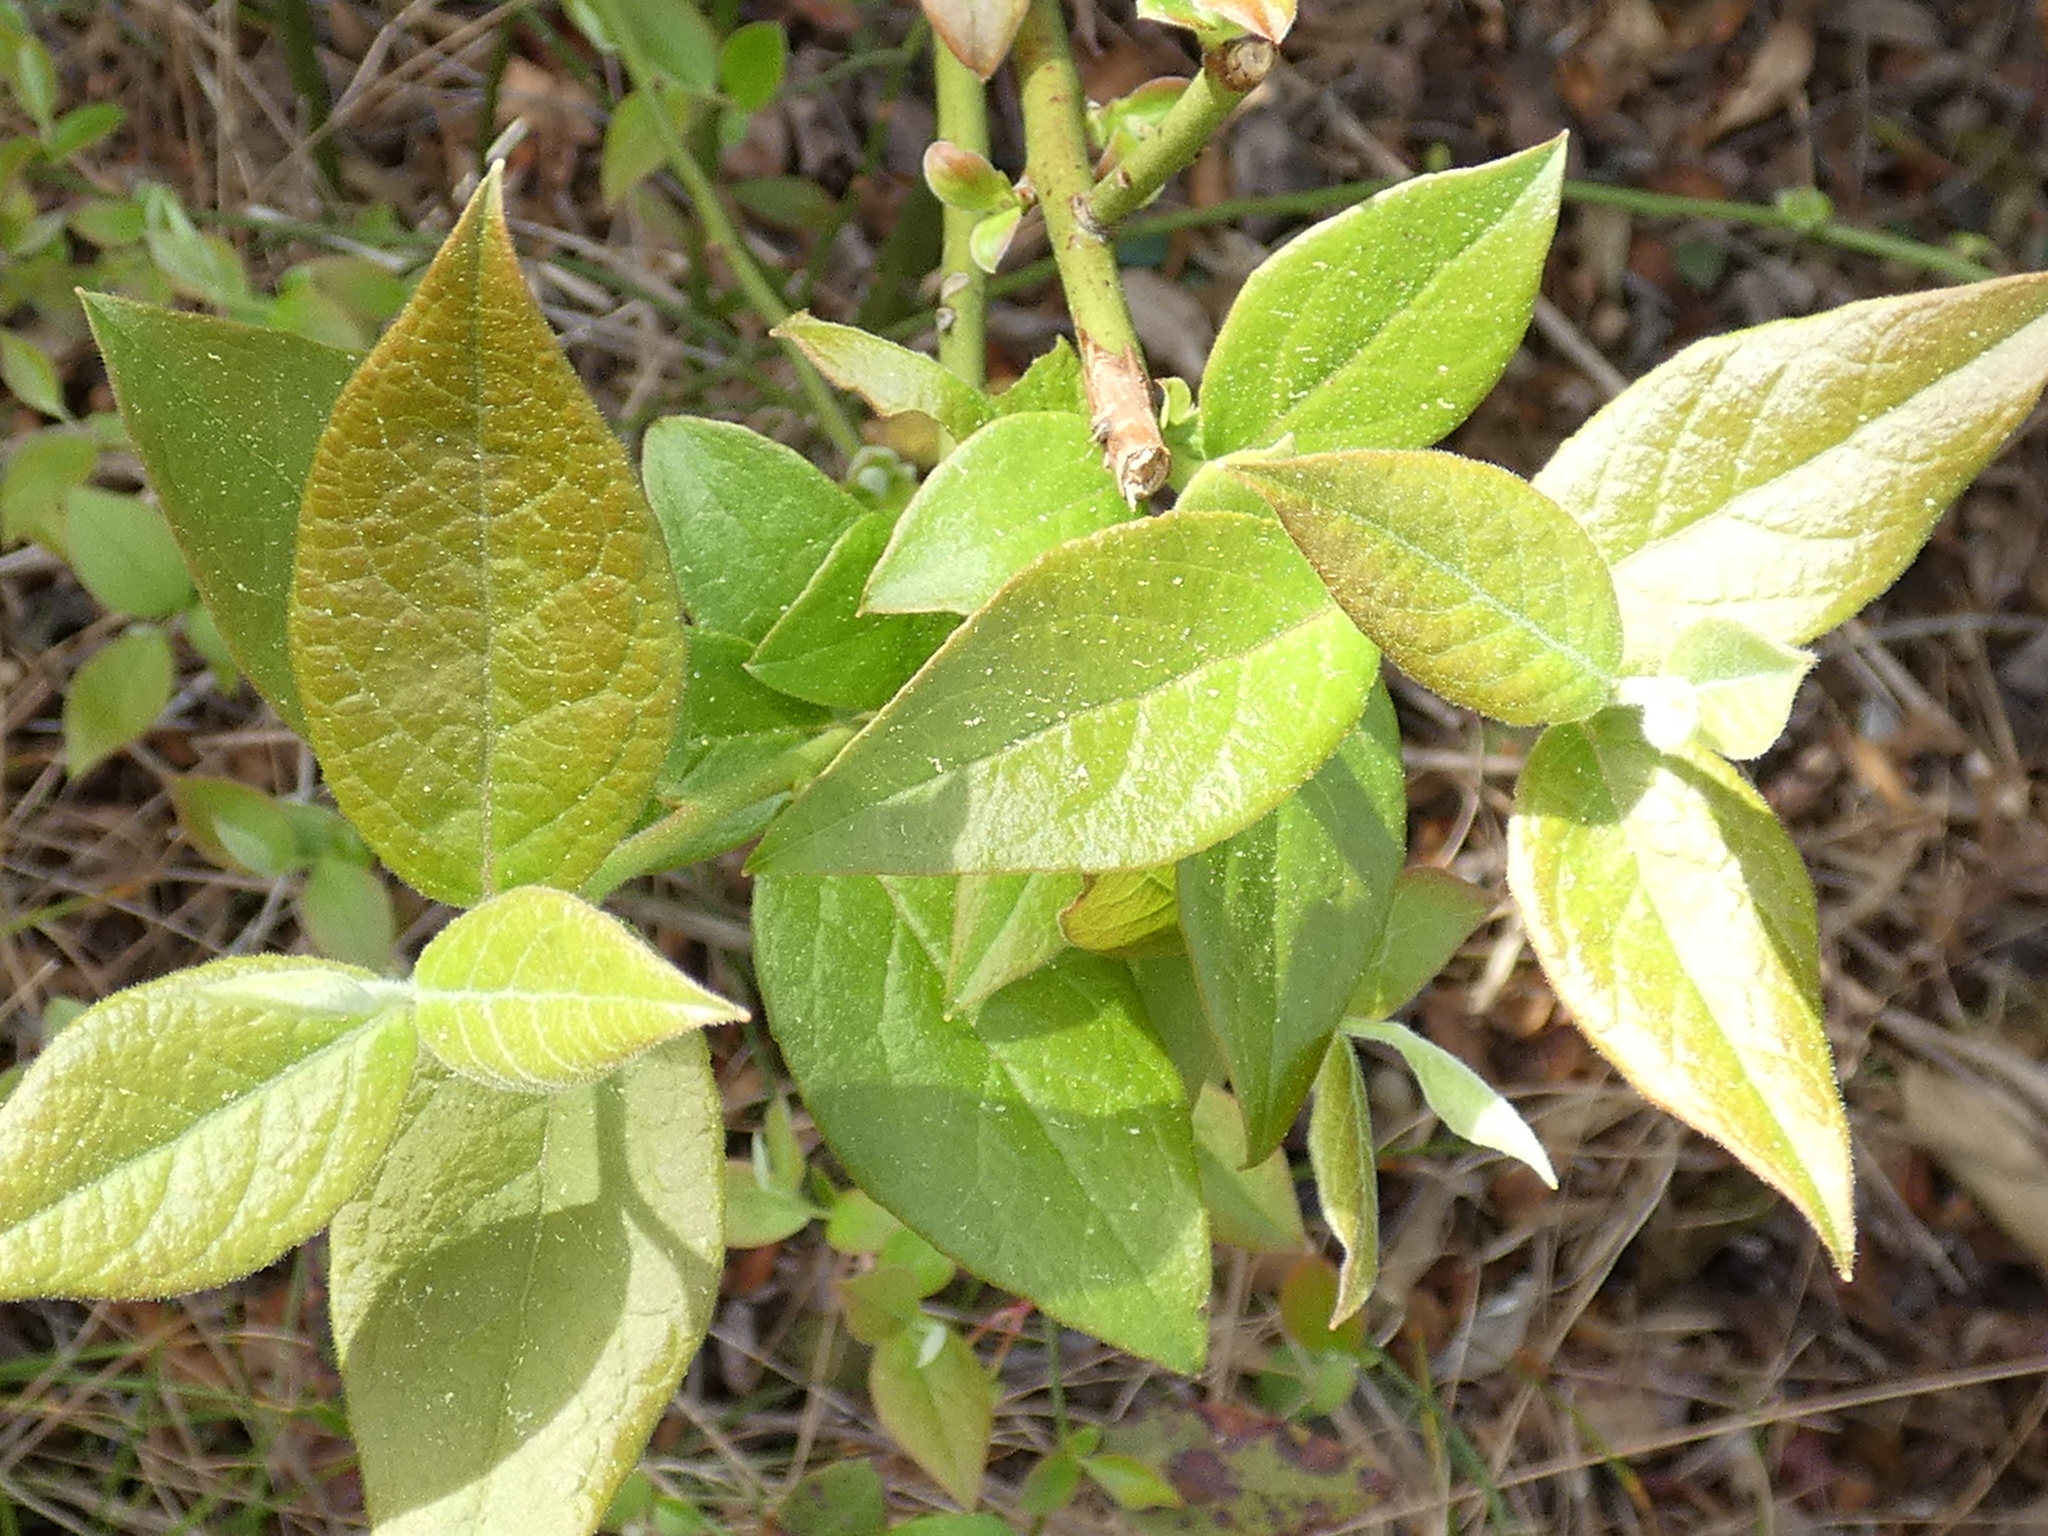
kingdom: Plantae
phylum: Tracheophyta
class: Magnoliopsida
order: Ericales
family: Ericaceae
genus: Vaccinium
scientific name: Vaccinium corymbosum
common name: Blueberry
